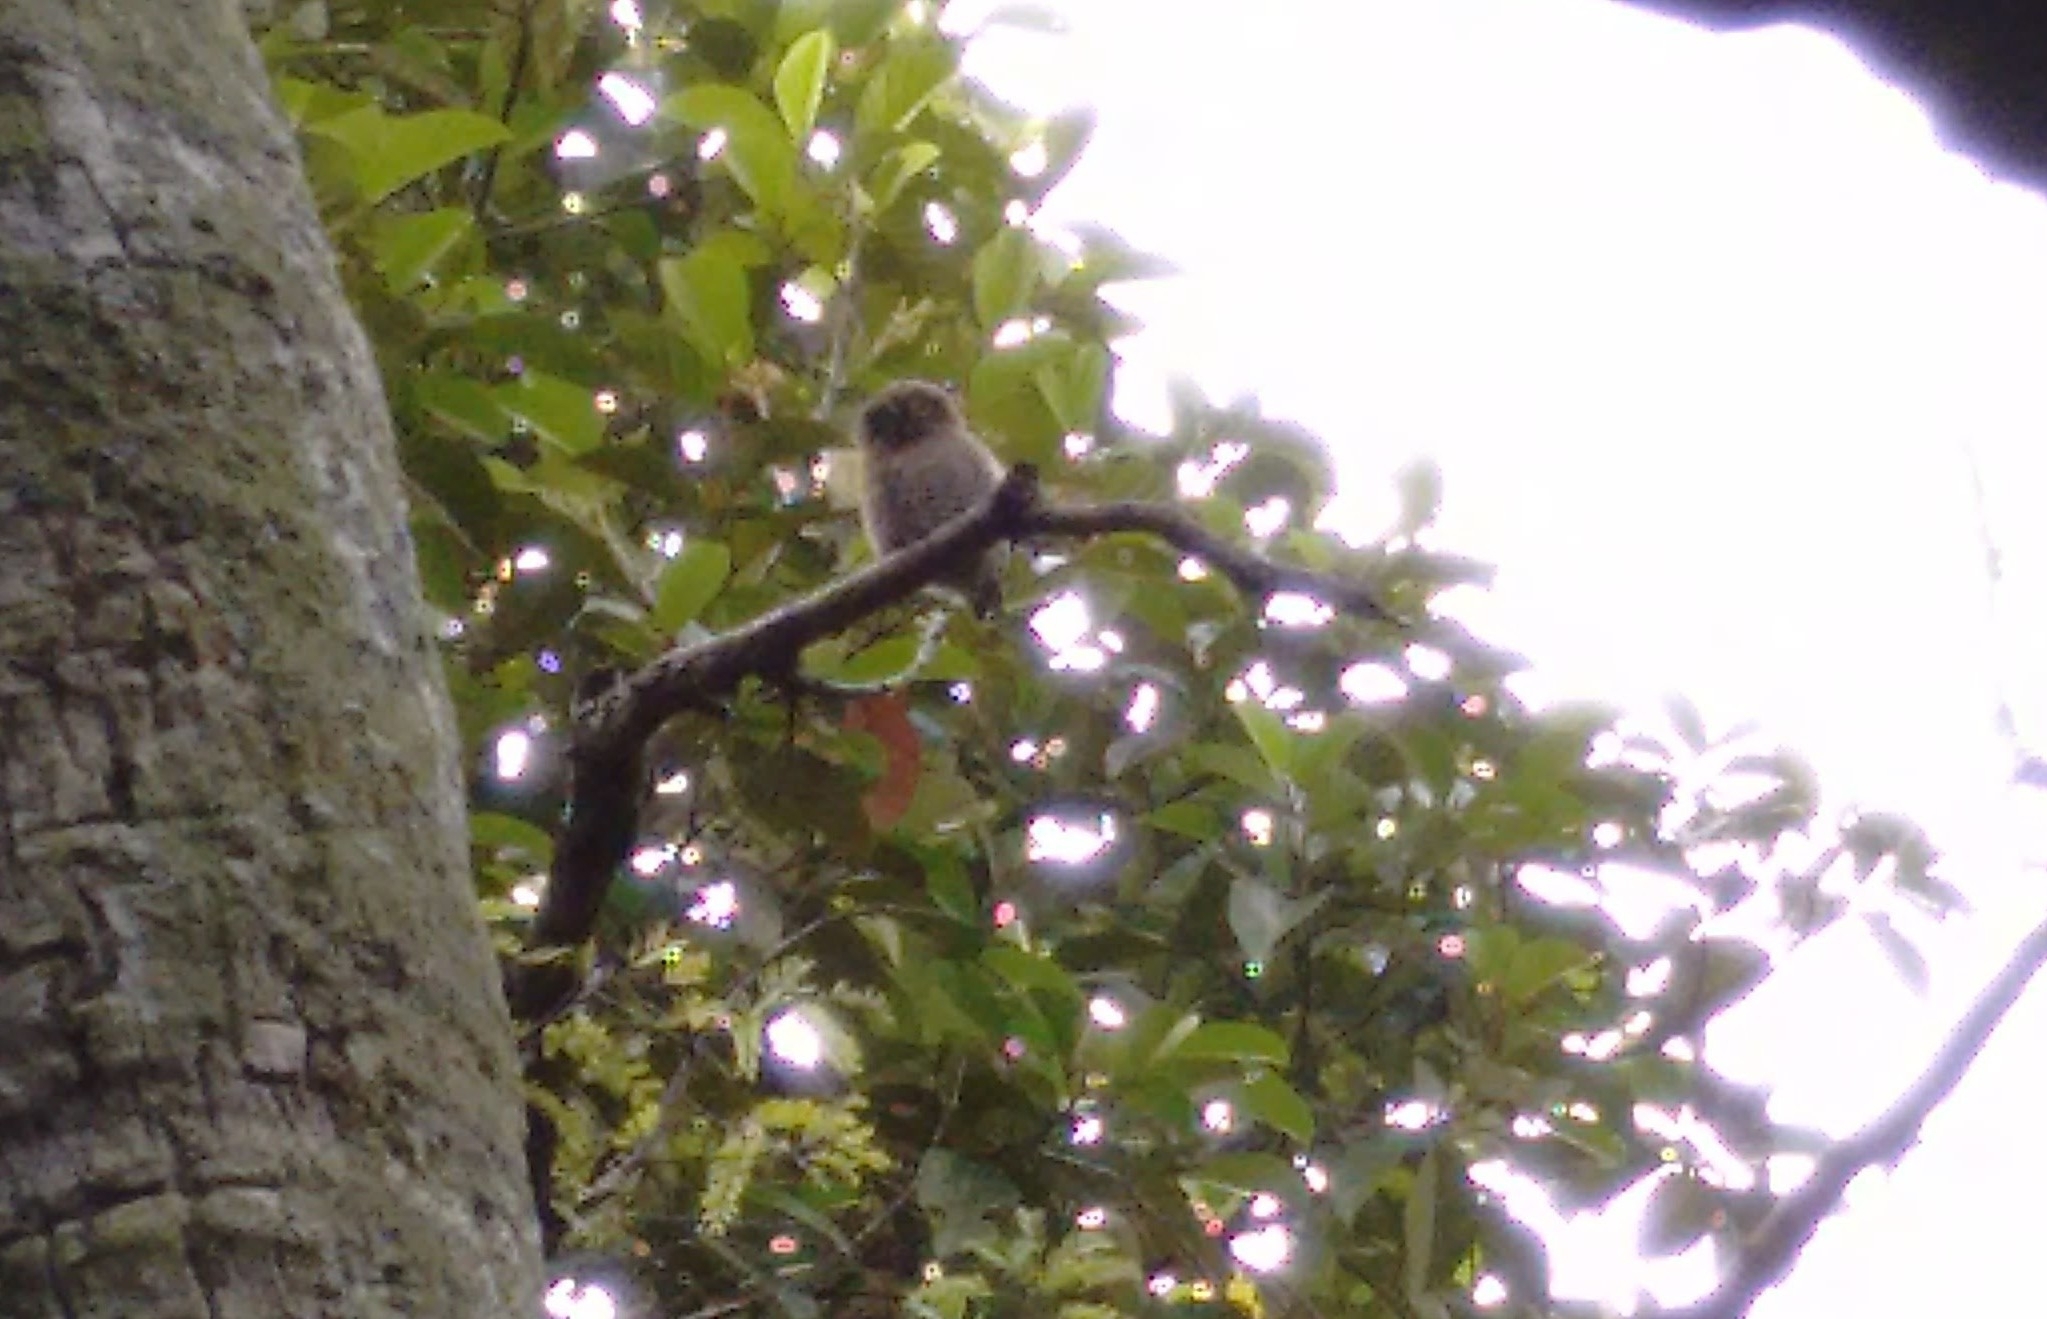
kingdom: Animalia
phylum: Chordata
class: Aves
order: Strigiformes
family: Strigidae
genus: Glaucidium
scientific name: Glaucidium radiatum
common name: Jungle owlet
